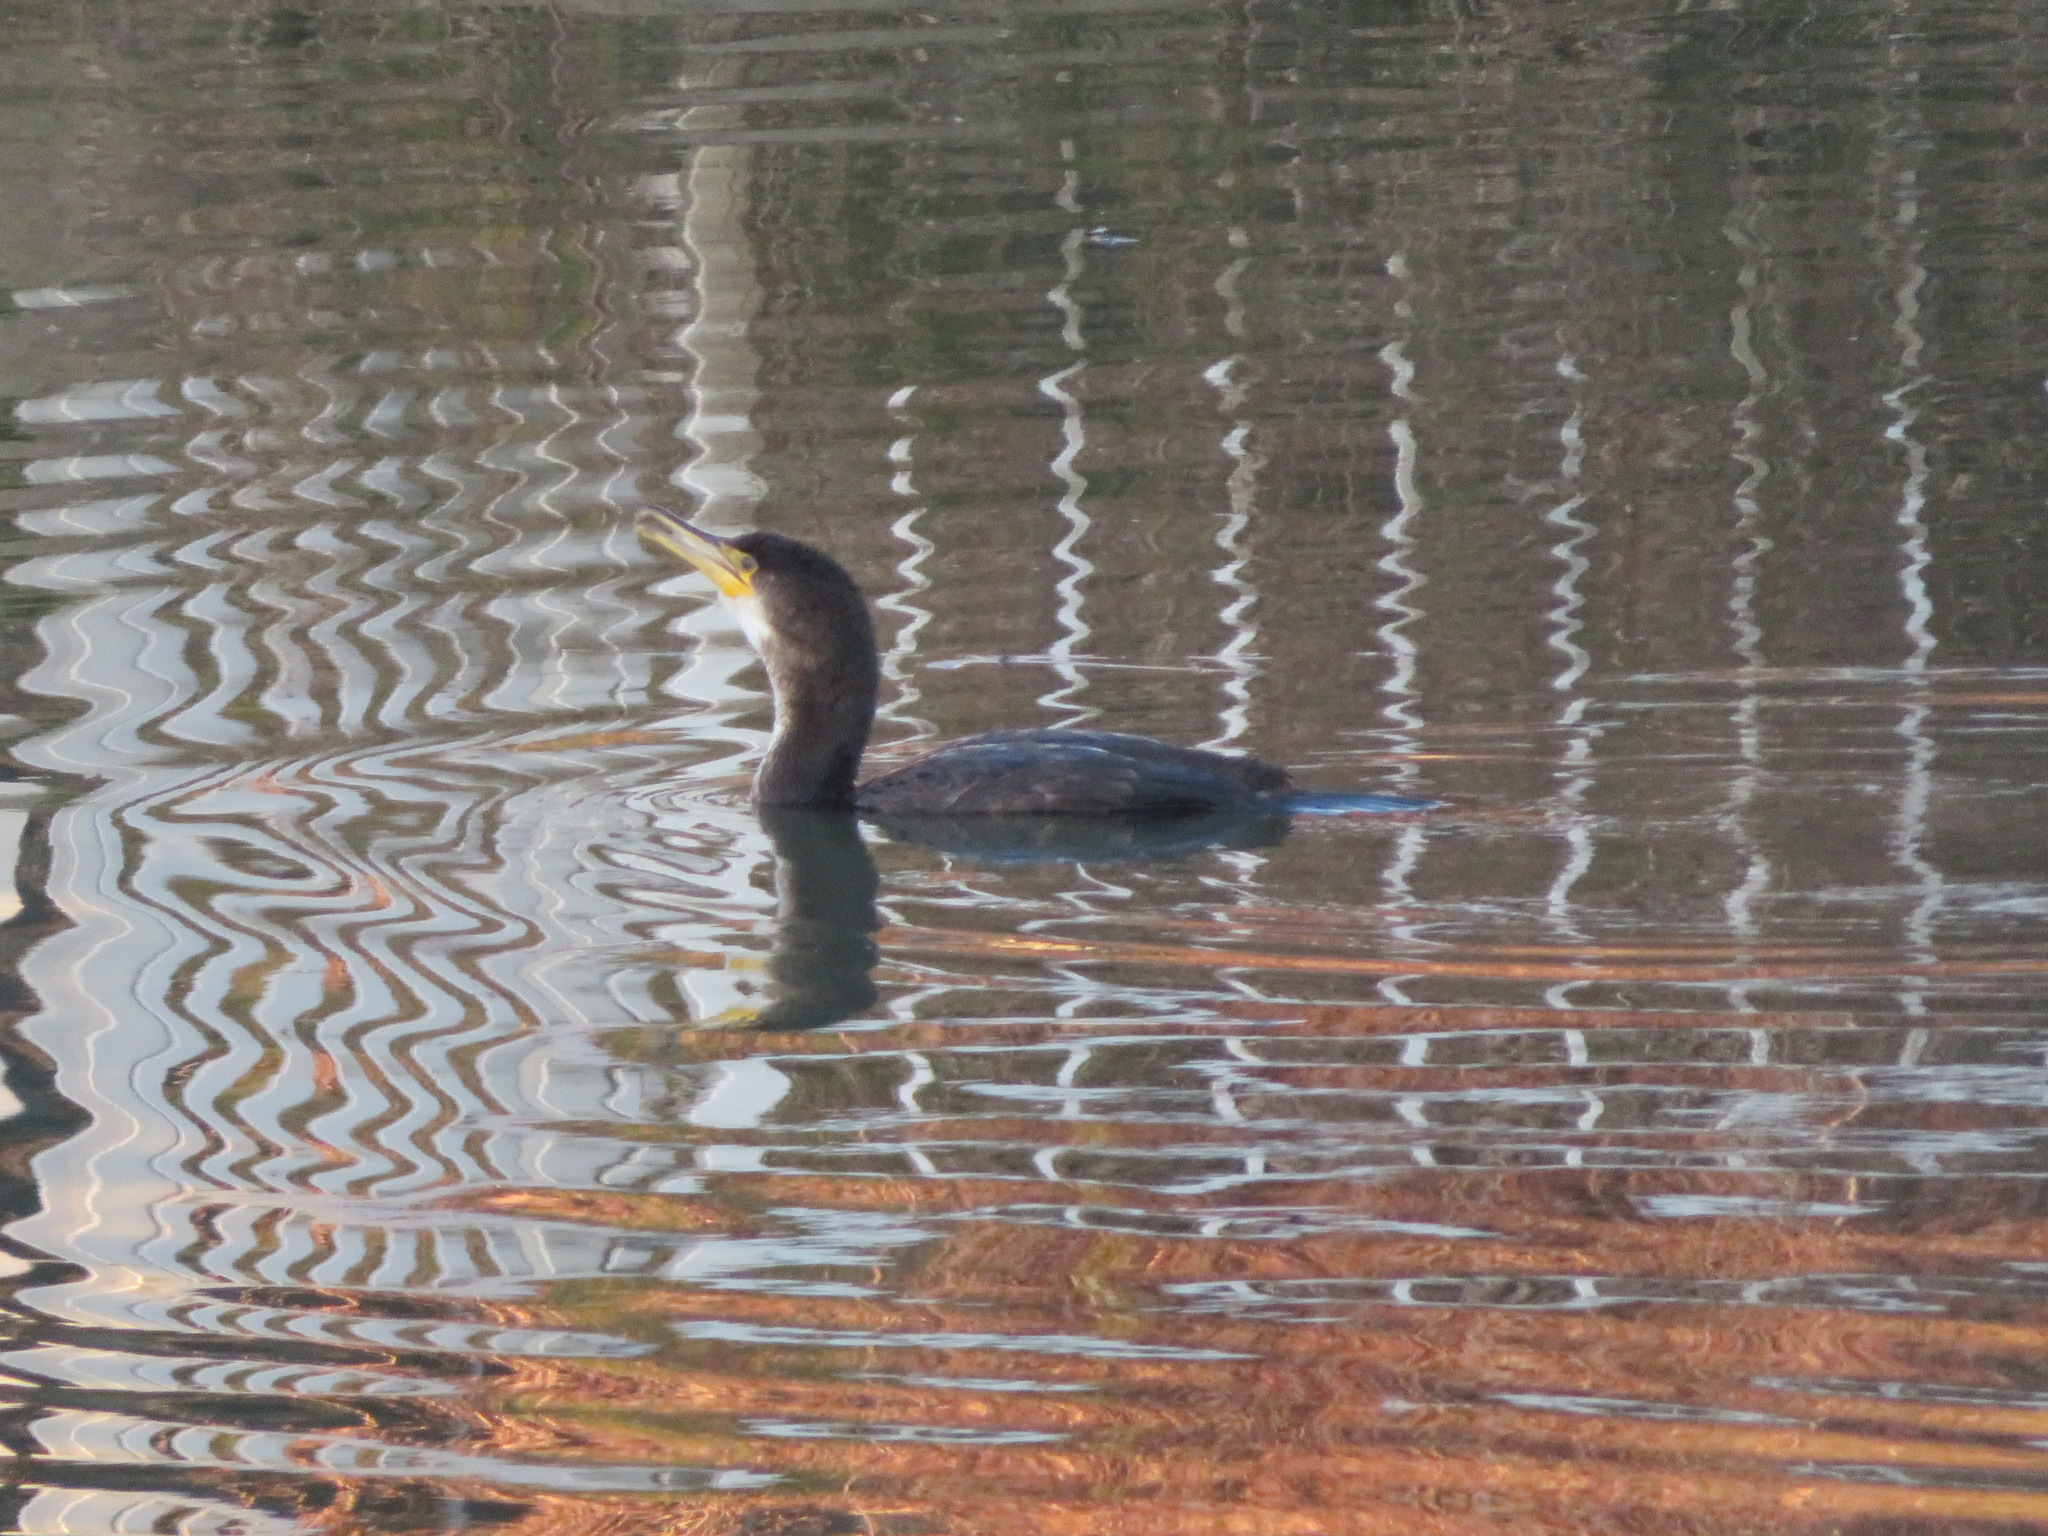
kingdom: Animalia
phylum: Chordata
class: Aves
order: Suliformes
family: Phalacrocoracidae
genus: Phalacrocorax
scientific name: Phalacrocorax carbo
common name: Great cormorant
